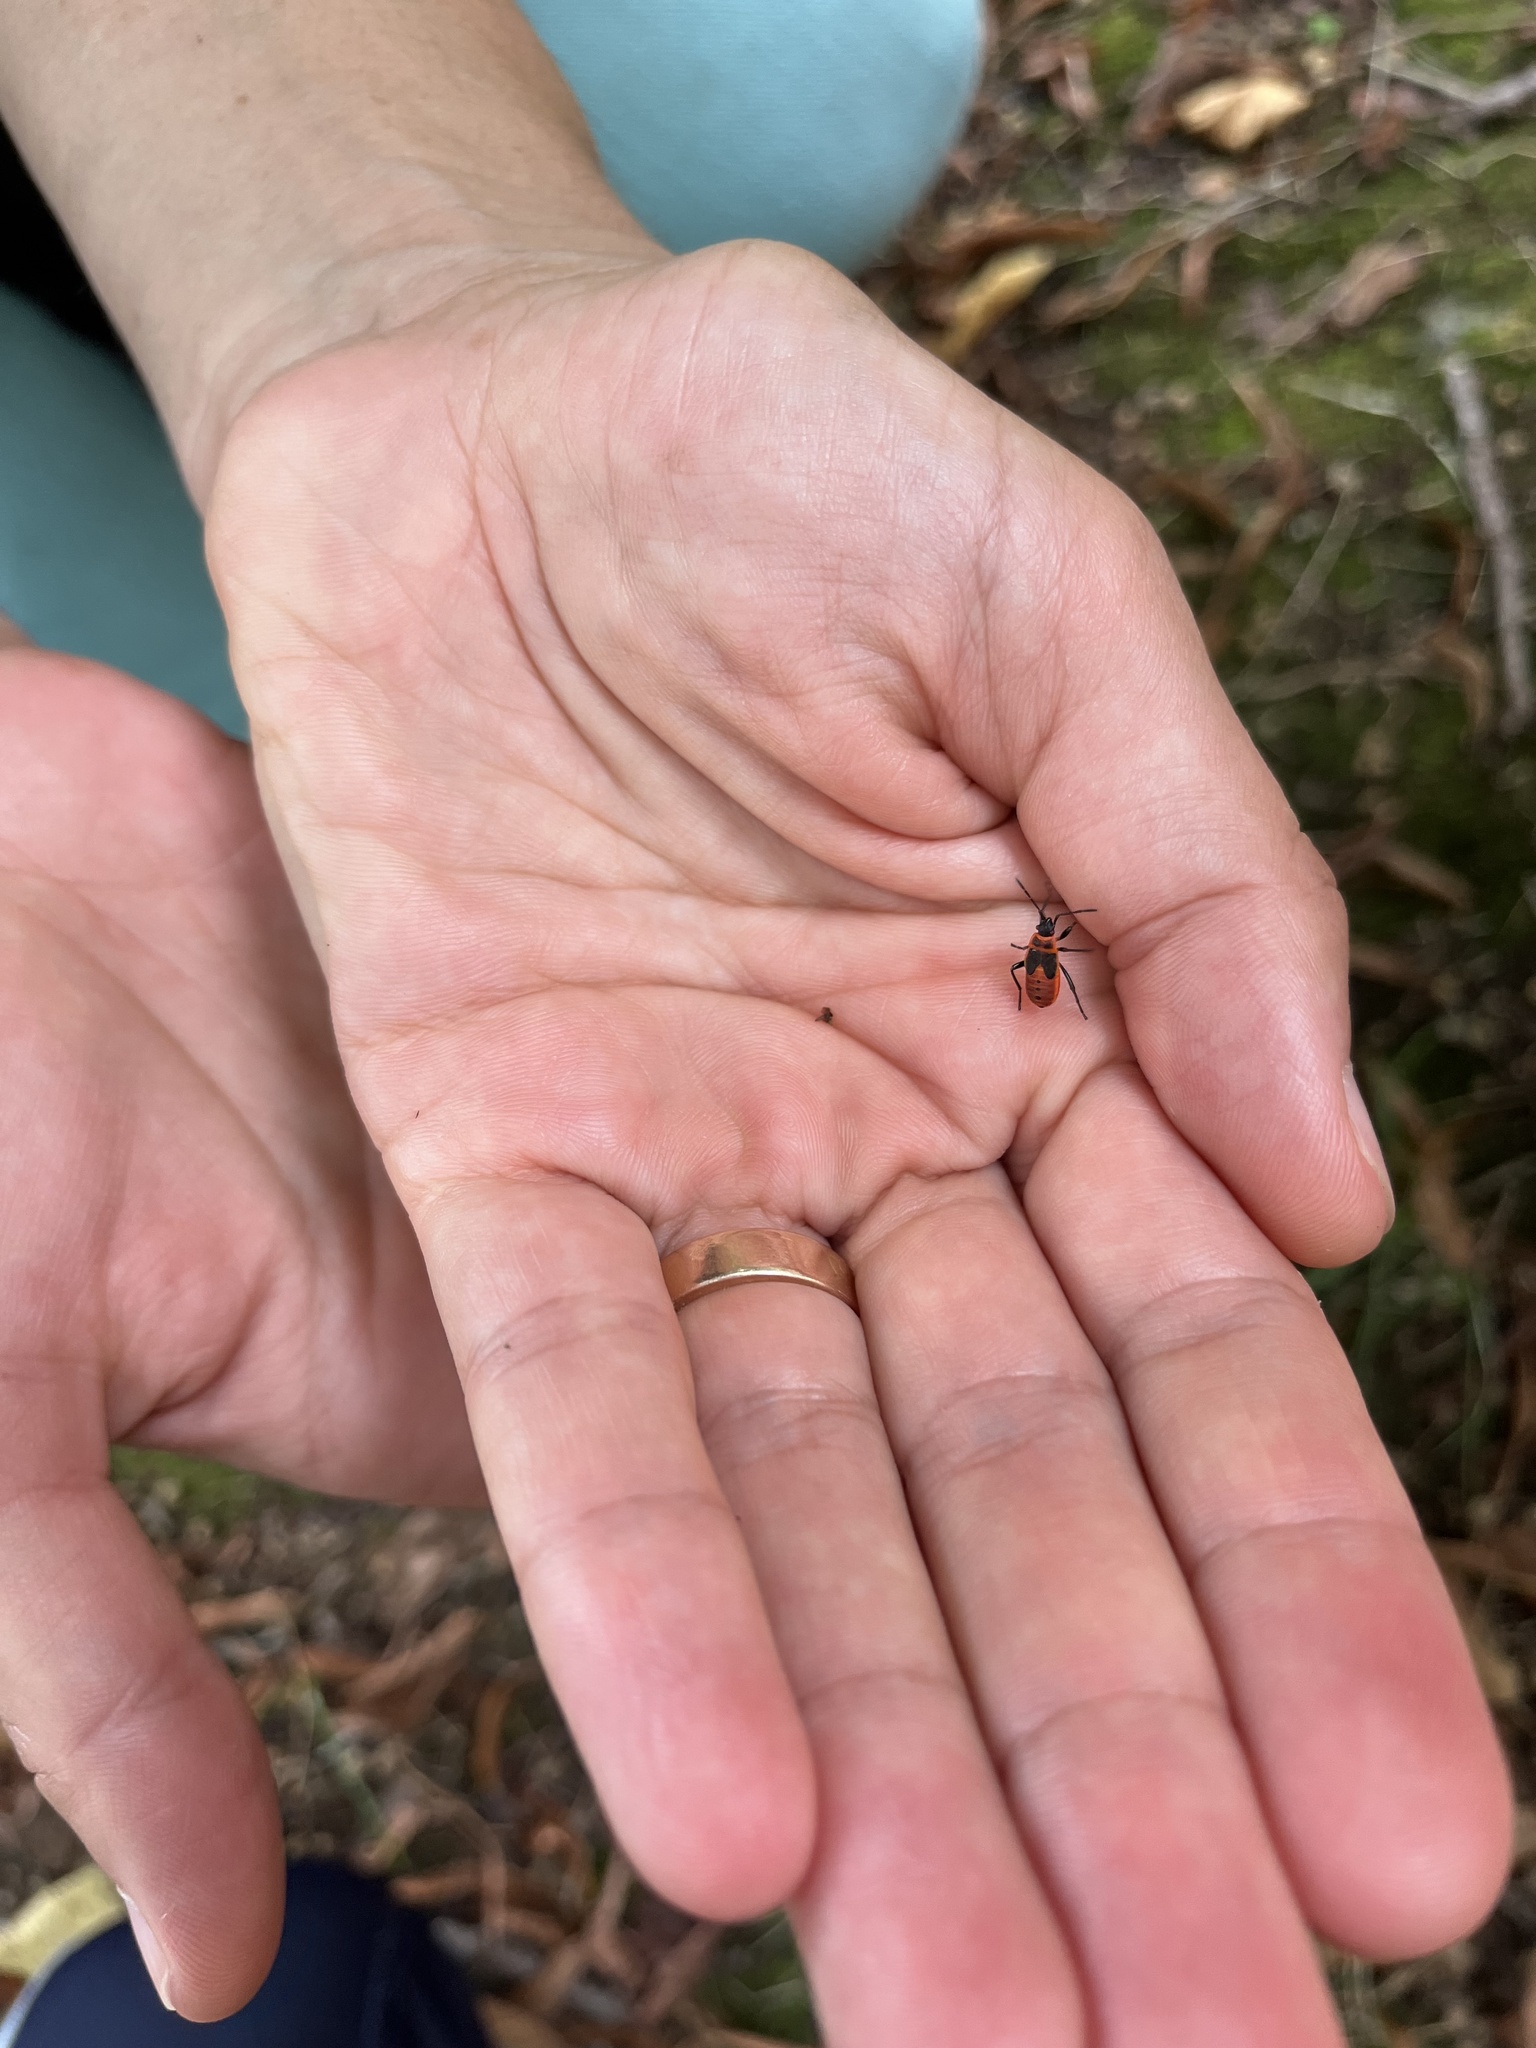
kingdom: Animalia
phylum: Arthropoda
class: Insecta
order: Hemiptera
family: Pyrrhocoridae
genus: Pyrrhocoris
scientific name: Pyrrhocoris apterus
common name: Firebug
